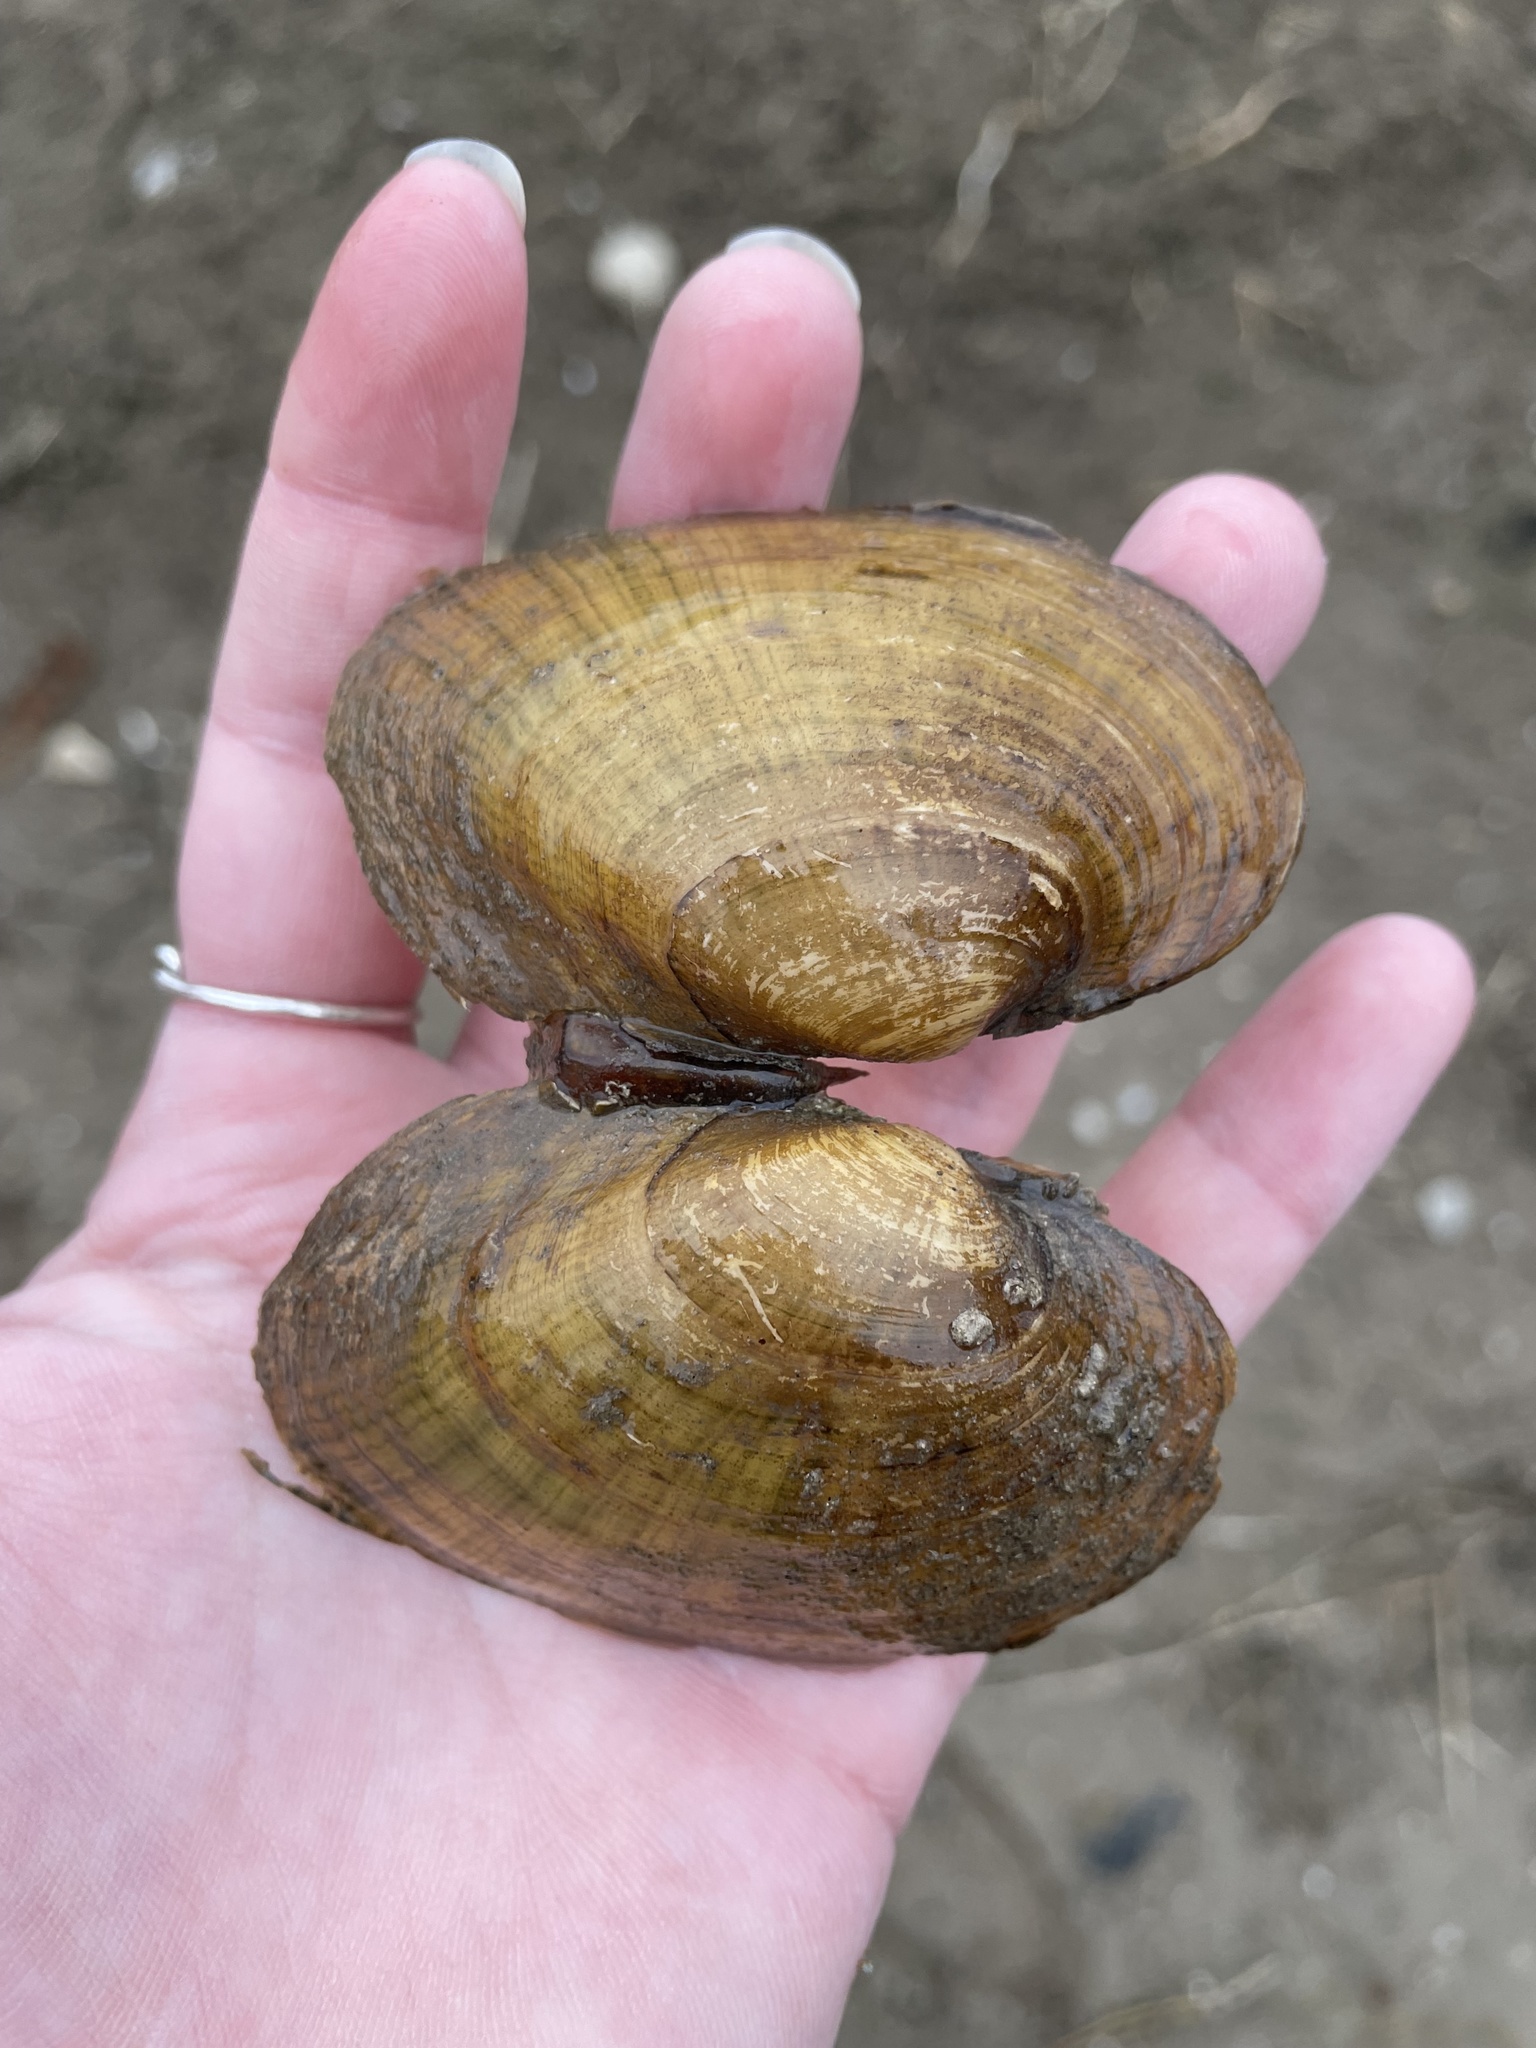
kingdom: Animalia
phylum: Mollusca
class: Bivalvia
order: Unionida
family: Unionidae
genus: Lampsilis
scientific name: Lampsilis fasciola
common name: Wavyrayed lampmussel
